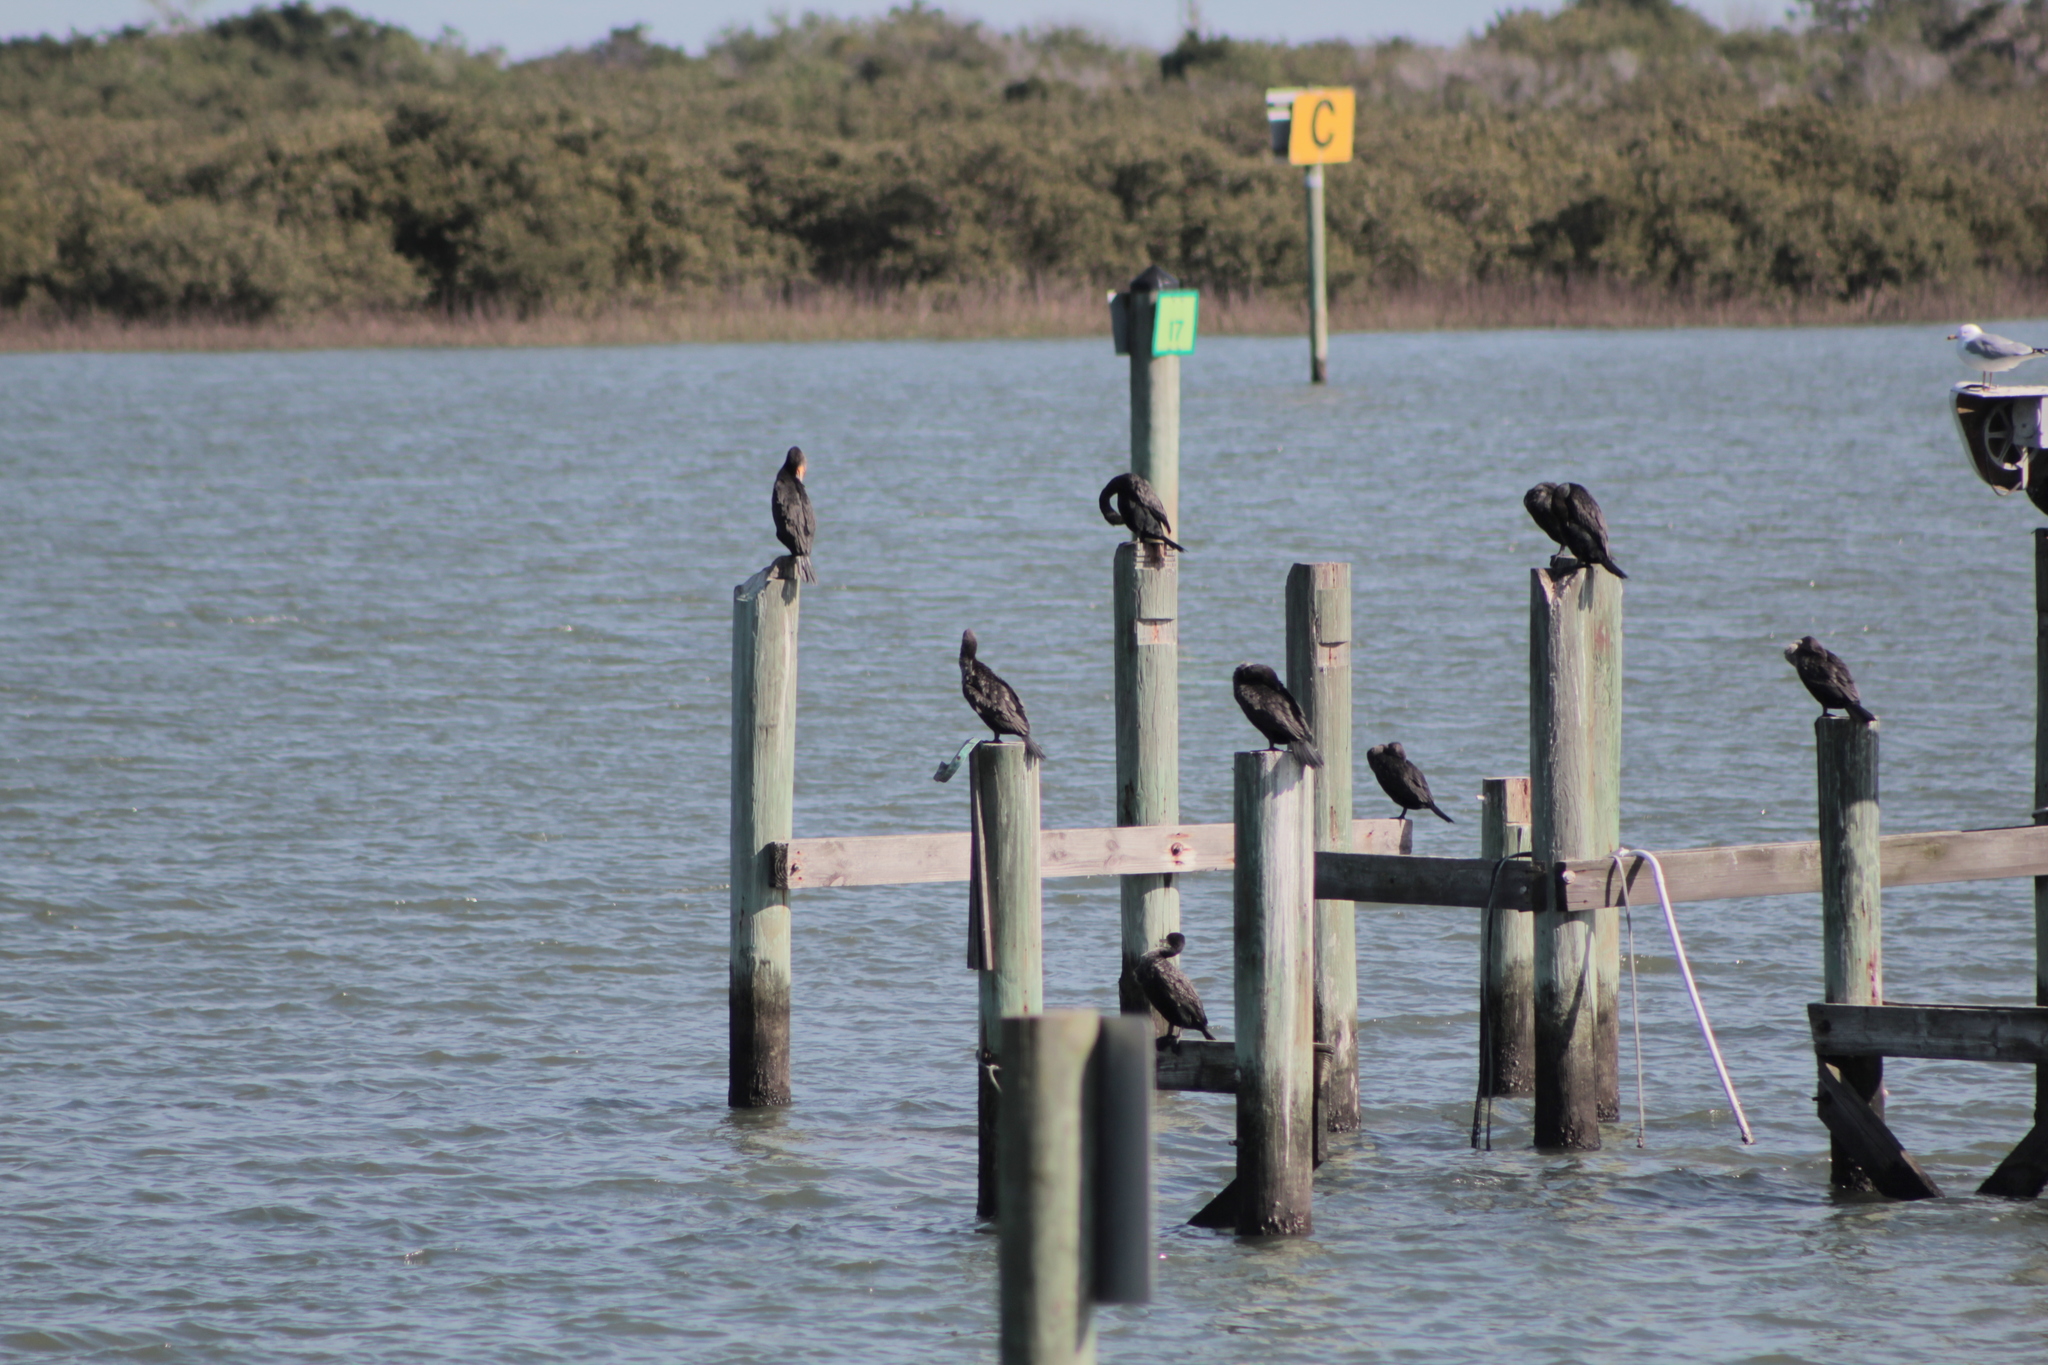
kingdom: Animalia
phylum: Chordata
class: Aves
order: Suliformes
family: Phalacrocoracidae
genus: Phalacrocorax
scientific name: Phalacrocorax auritus
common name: Double-crested cormorant
